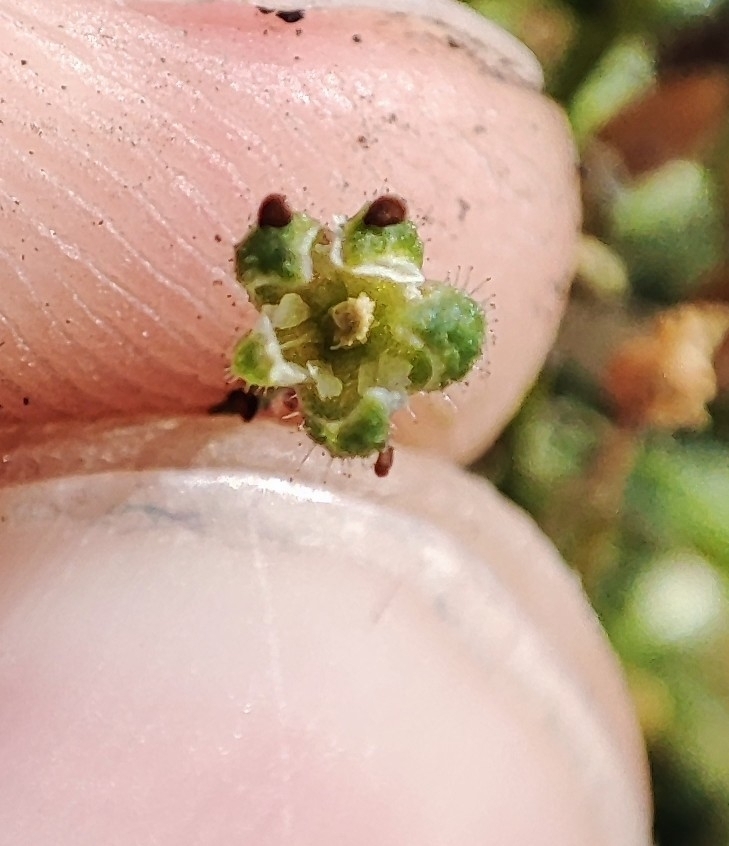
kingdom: Plantae
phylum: Tracheophyta
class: Magnoliopsida
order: Caryophyllales
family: Caryophyllaceae
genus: Spergularia
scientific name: Spergularia marina
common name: Lesser sea-spurrey
